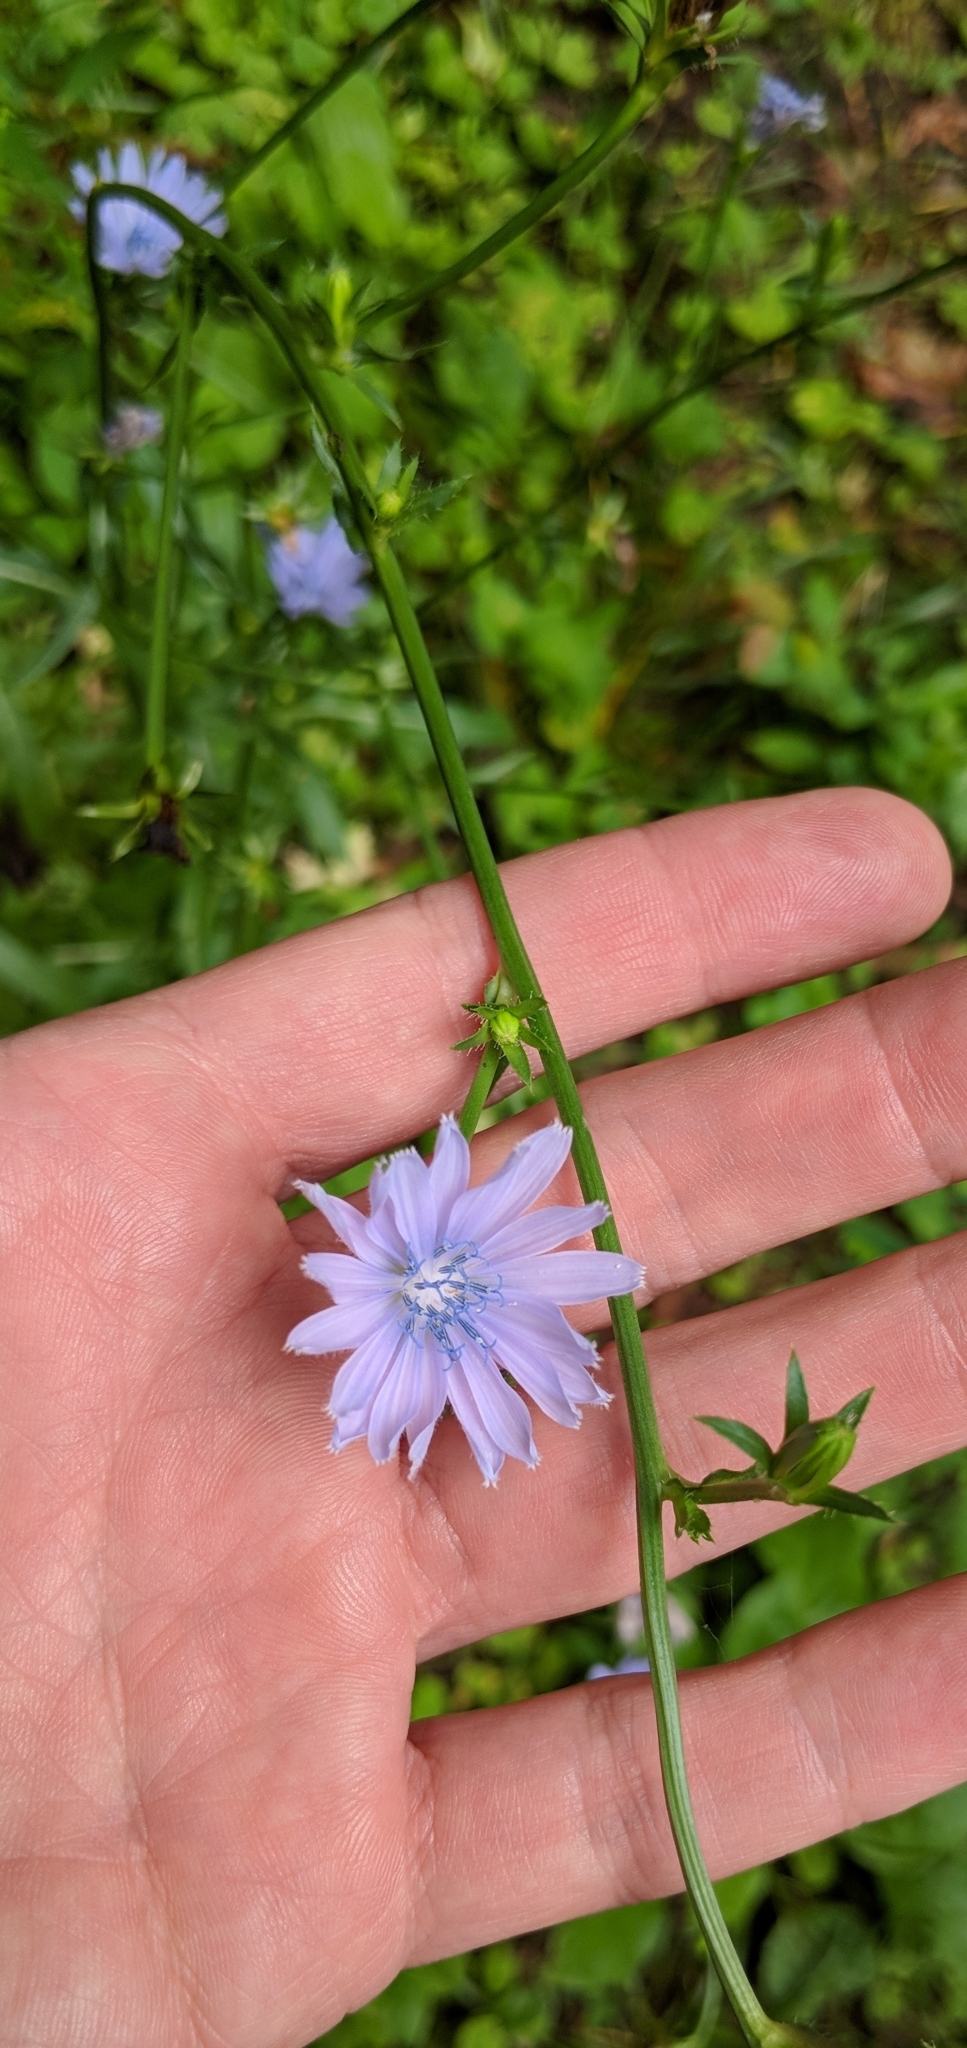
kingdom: Plantae
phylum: Tracheophyta
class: Magnoliopsida
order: Asterales
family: Asteraceae
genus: Cichorium
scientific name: Cichorium intybus
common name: Chicory
